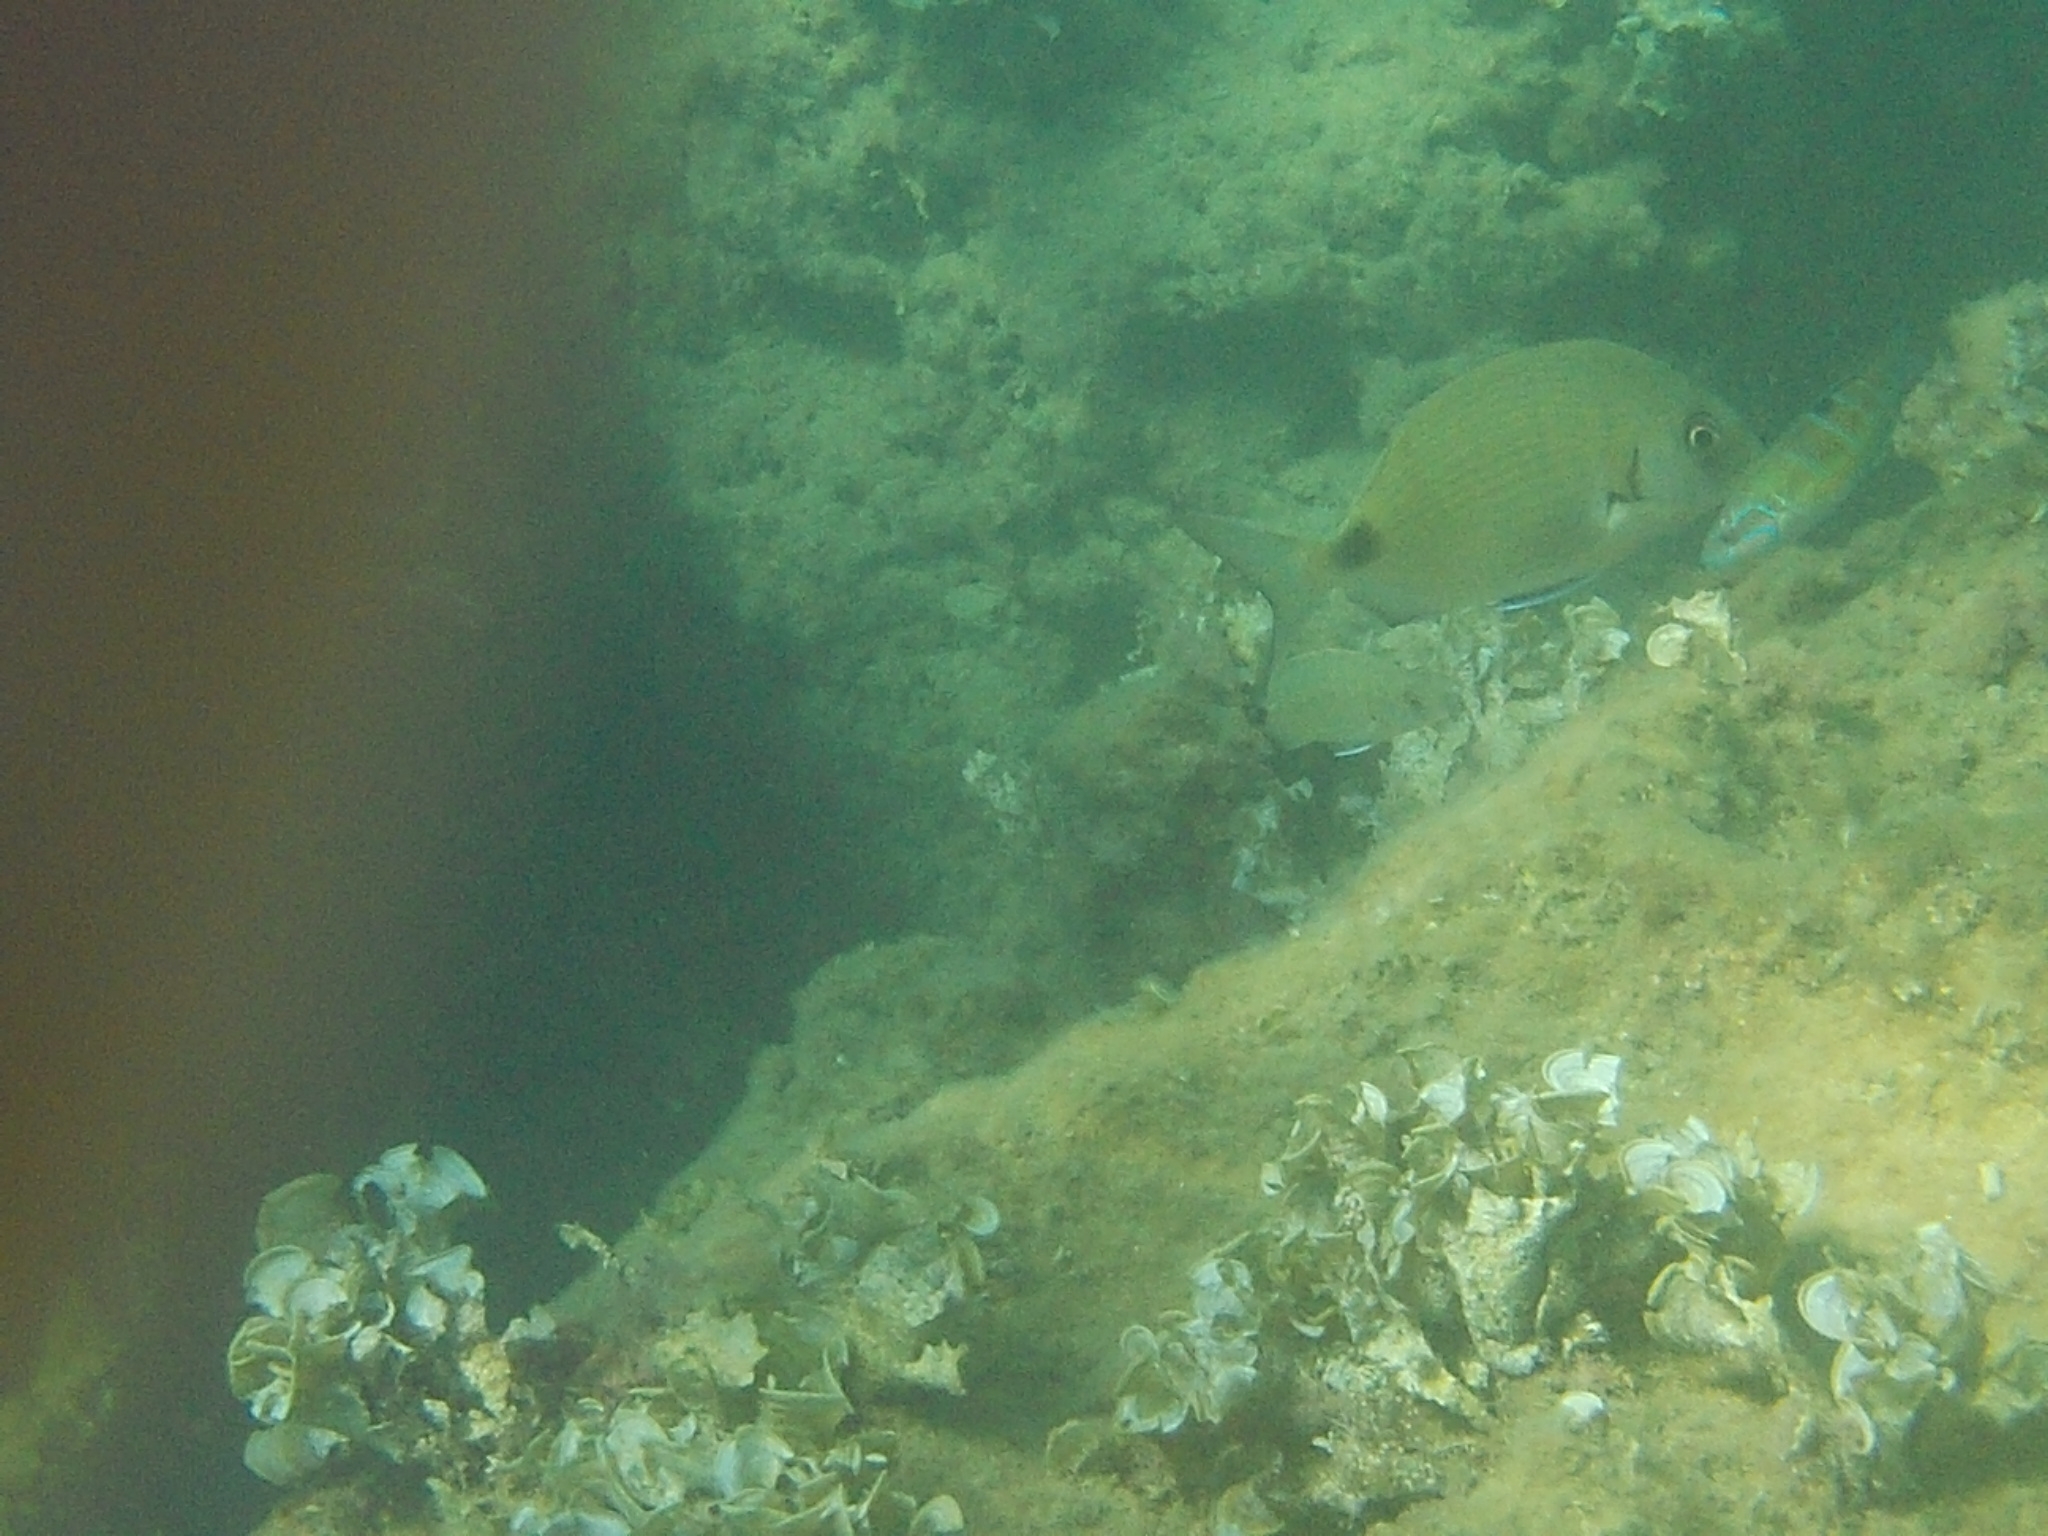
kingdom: Animalia
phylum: Chordata
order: Perciformes
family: Sparidae
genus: Diplodus
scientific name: Diplodus sargus
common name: White seabream
